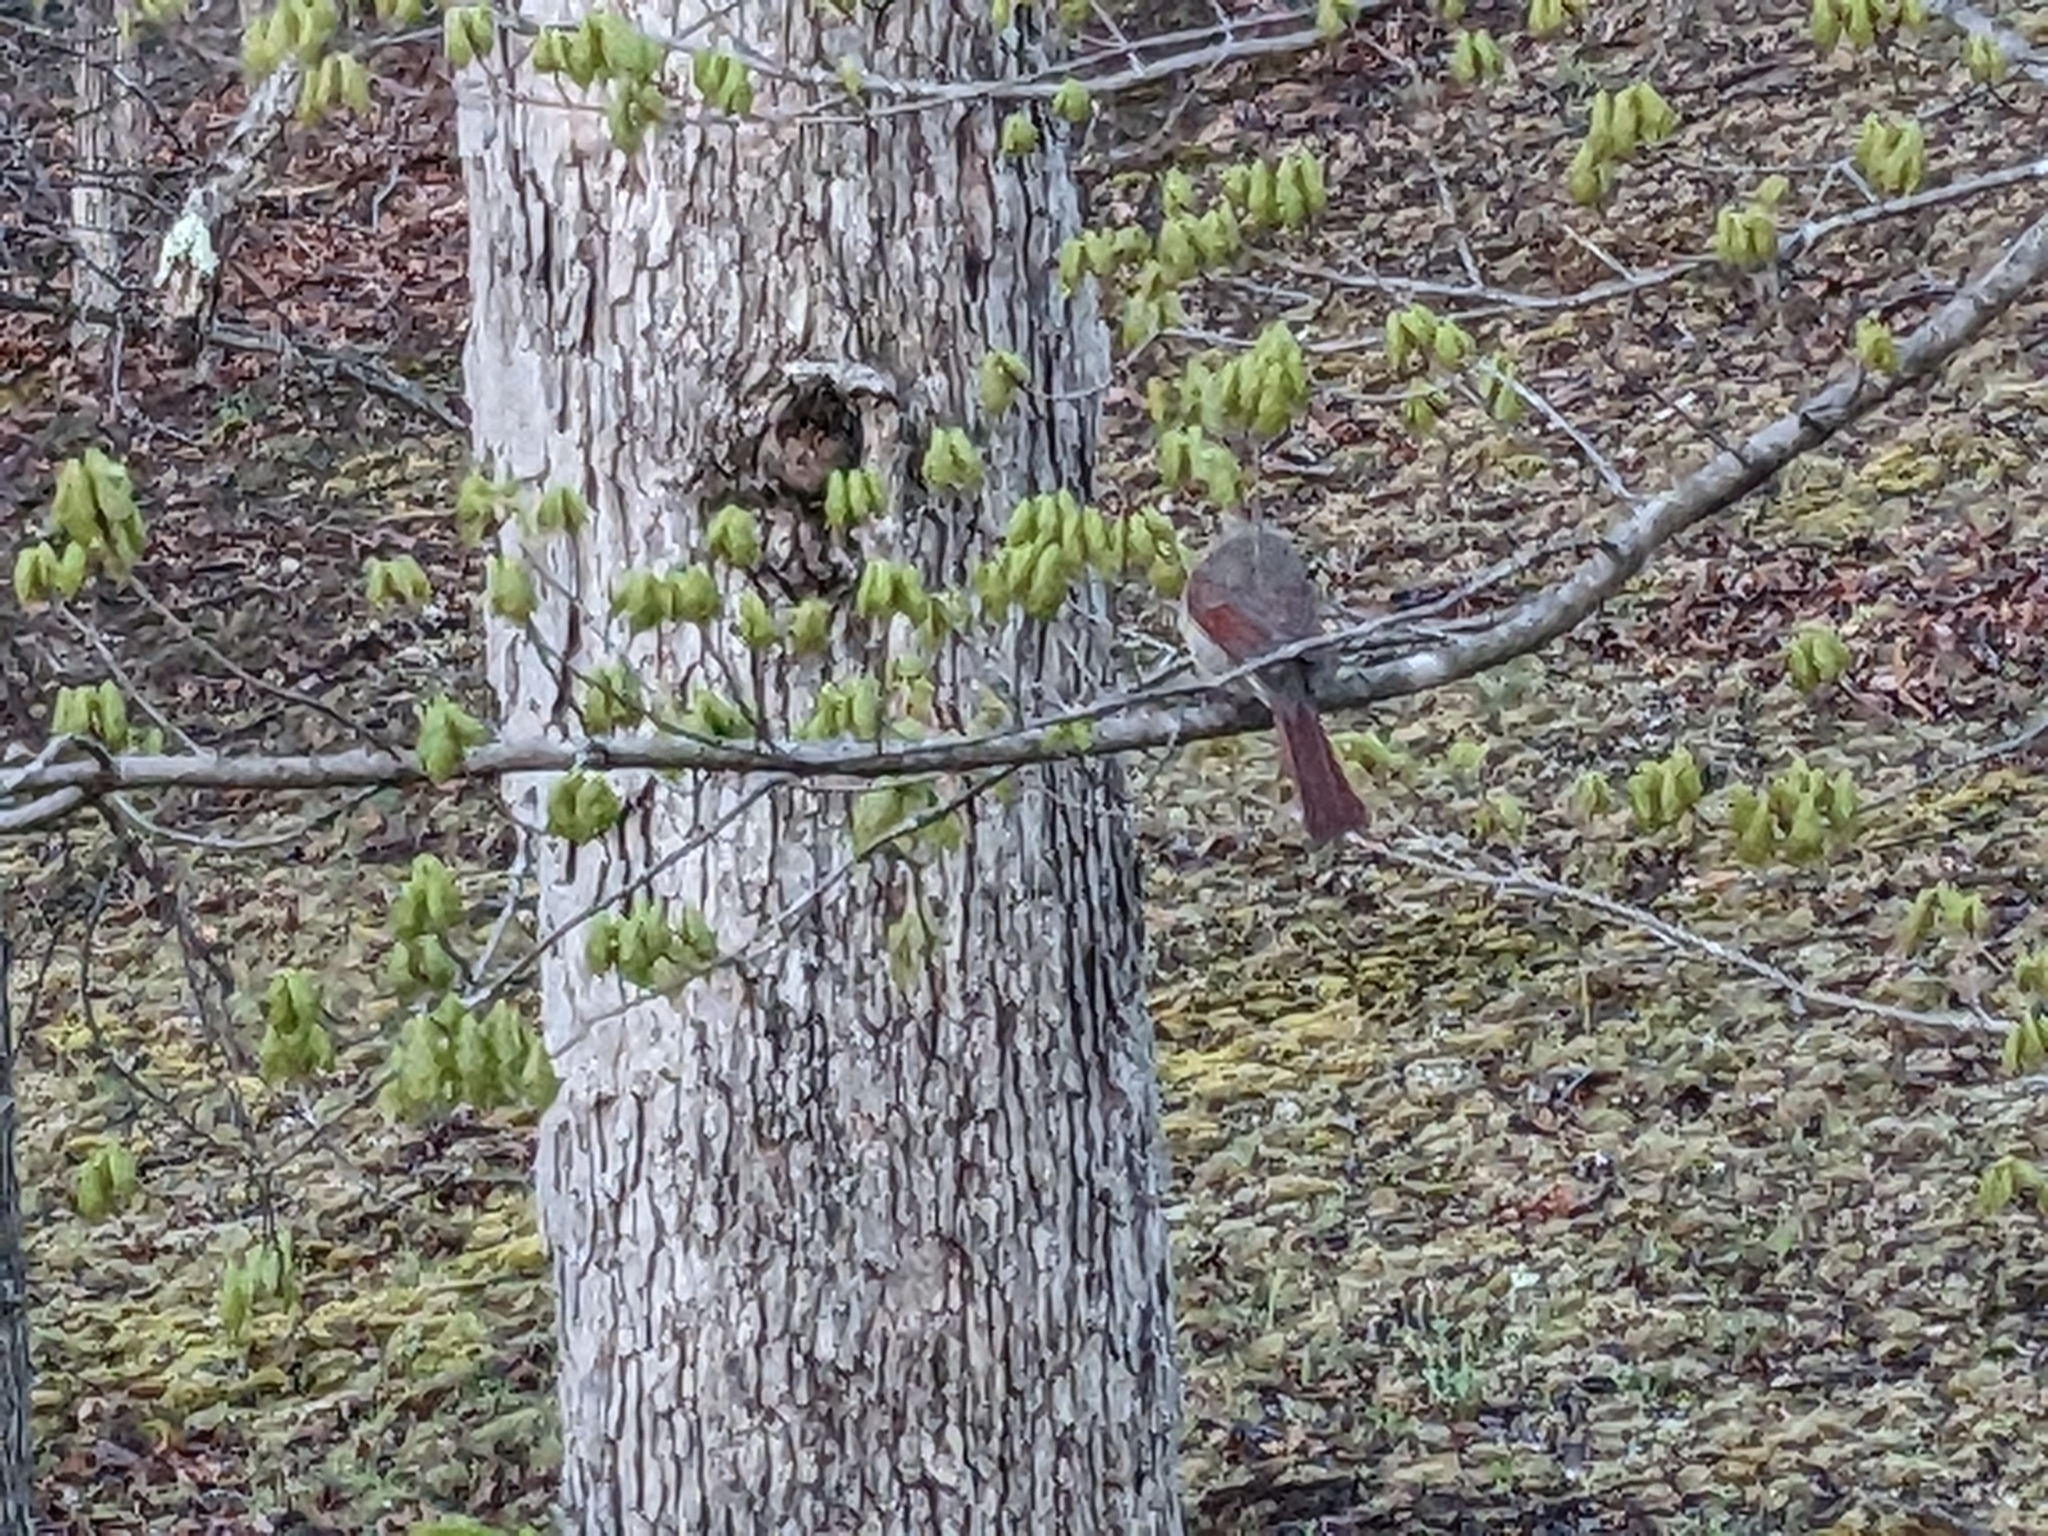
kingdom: Animalia
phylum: Chordata
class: Aves
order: Passeriformes
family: Cardinalidae
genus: Cardinalis
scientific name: Cardinalis cardinalis
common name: Northern cardinal
